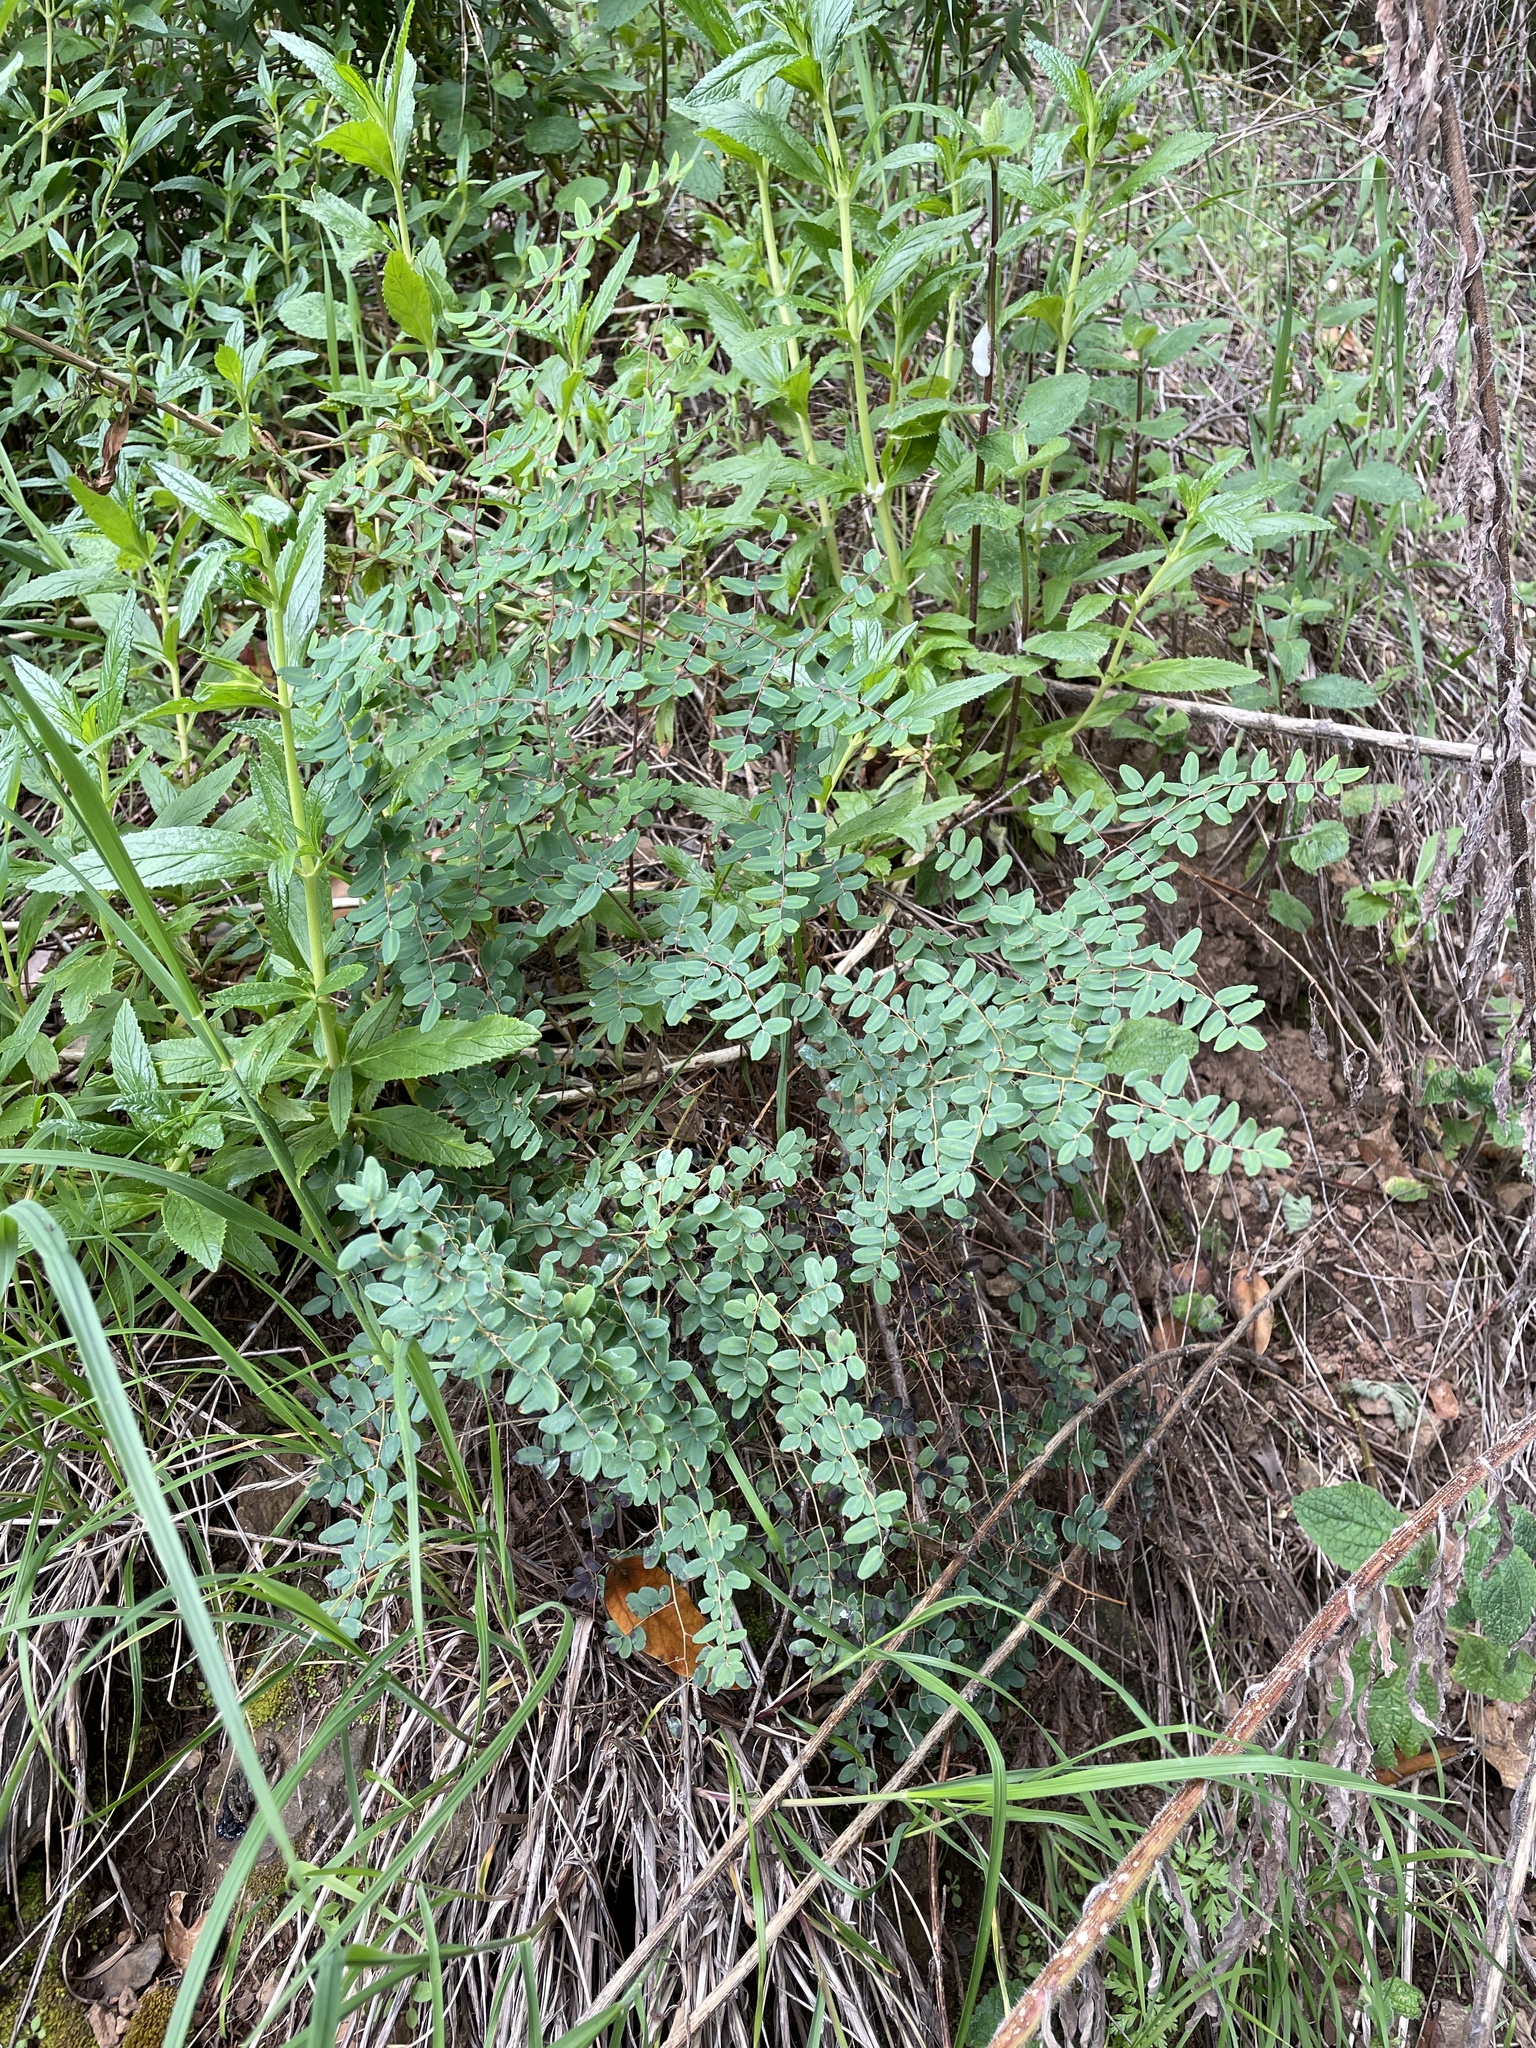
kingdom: Plantae
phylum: Tracheophyta
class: Polypodiopsida
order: Polypodiales
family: Pteridaceae
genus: Pellaea
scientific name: Pellaea andromedifolia
